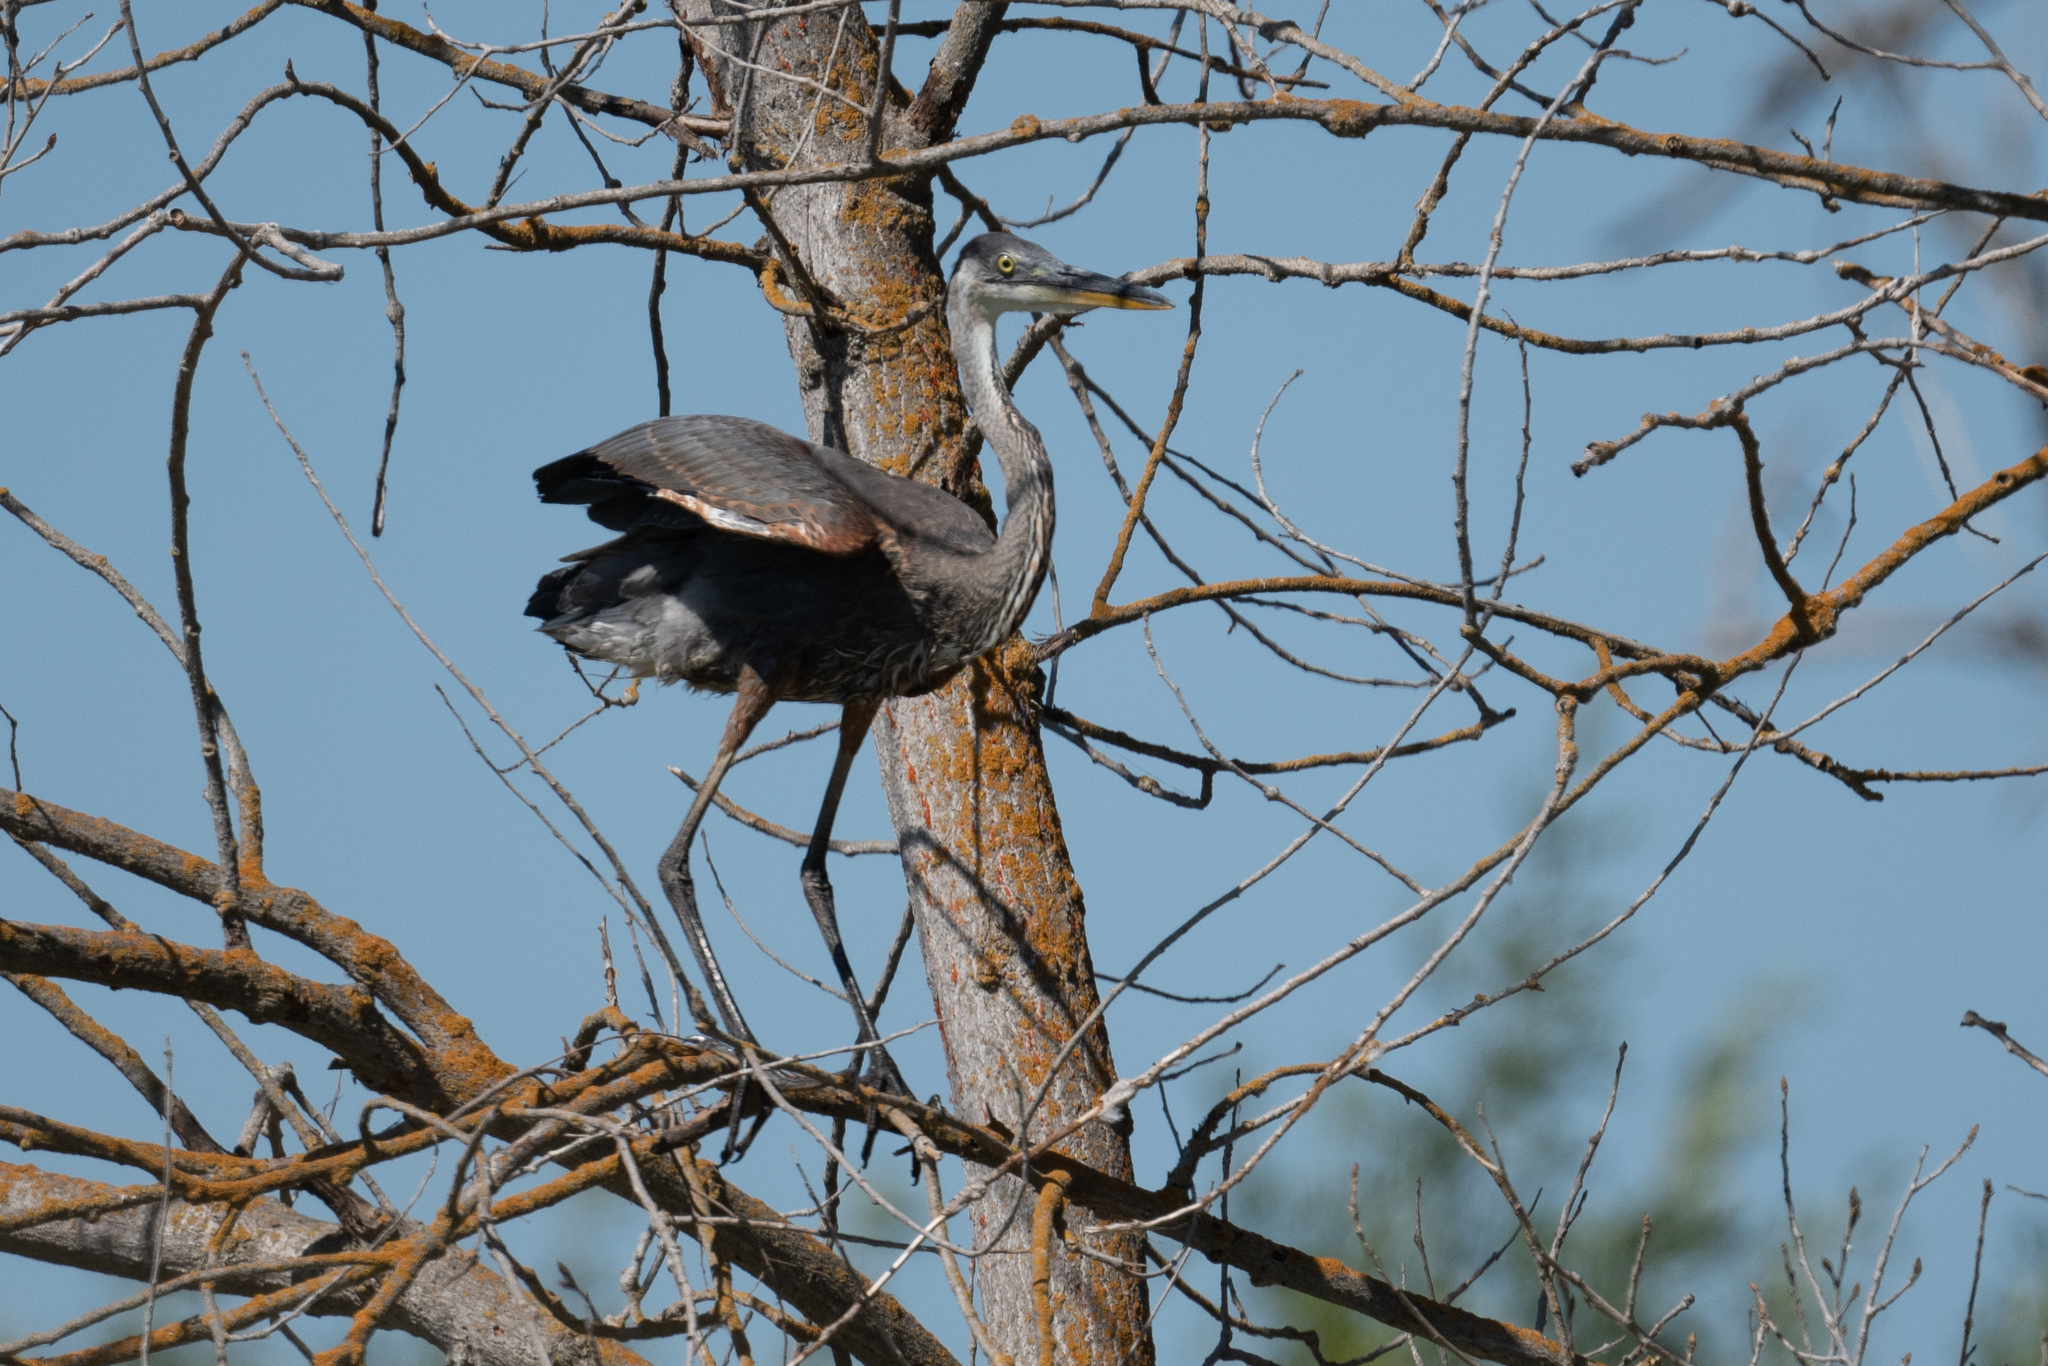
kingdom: Animalia
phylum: Chordata
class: Aves
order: Pelecaniformes
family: Ardeidae
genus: Ardea
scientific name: Ardea herodias
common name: Great blue heron
